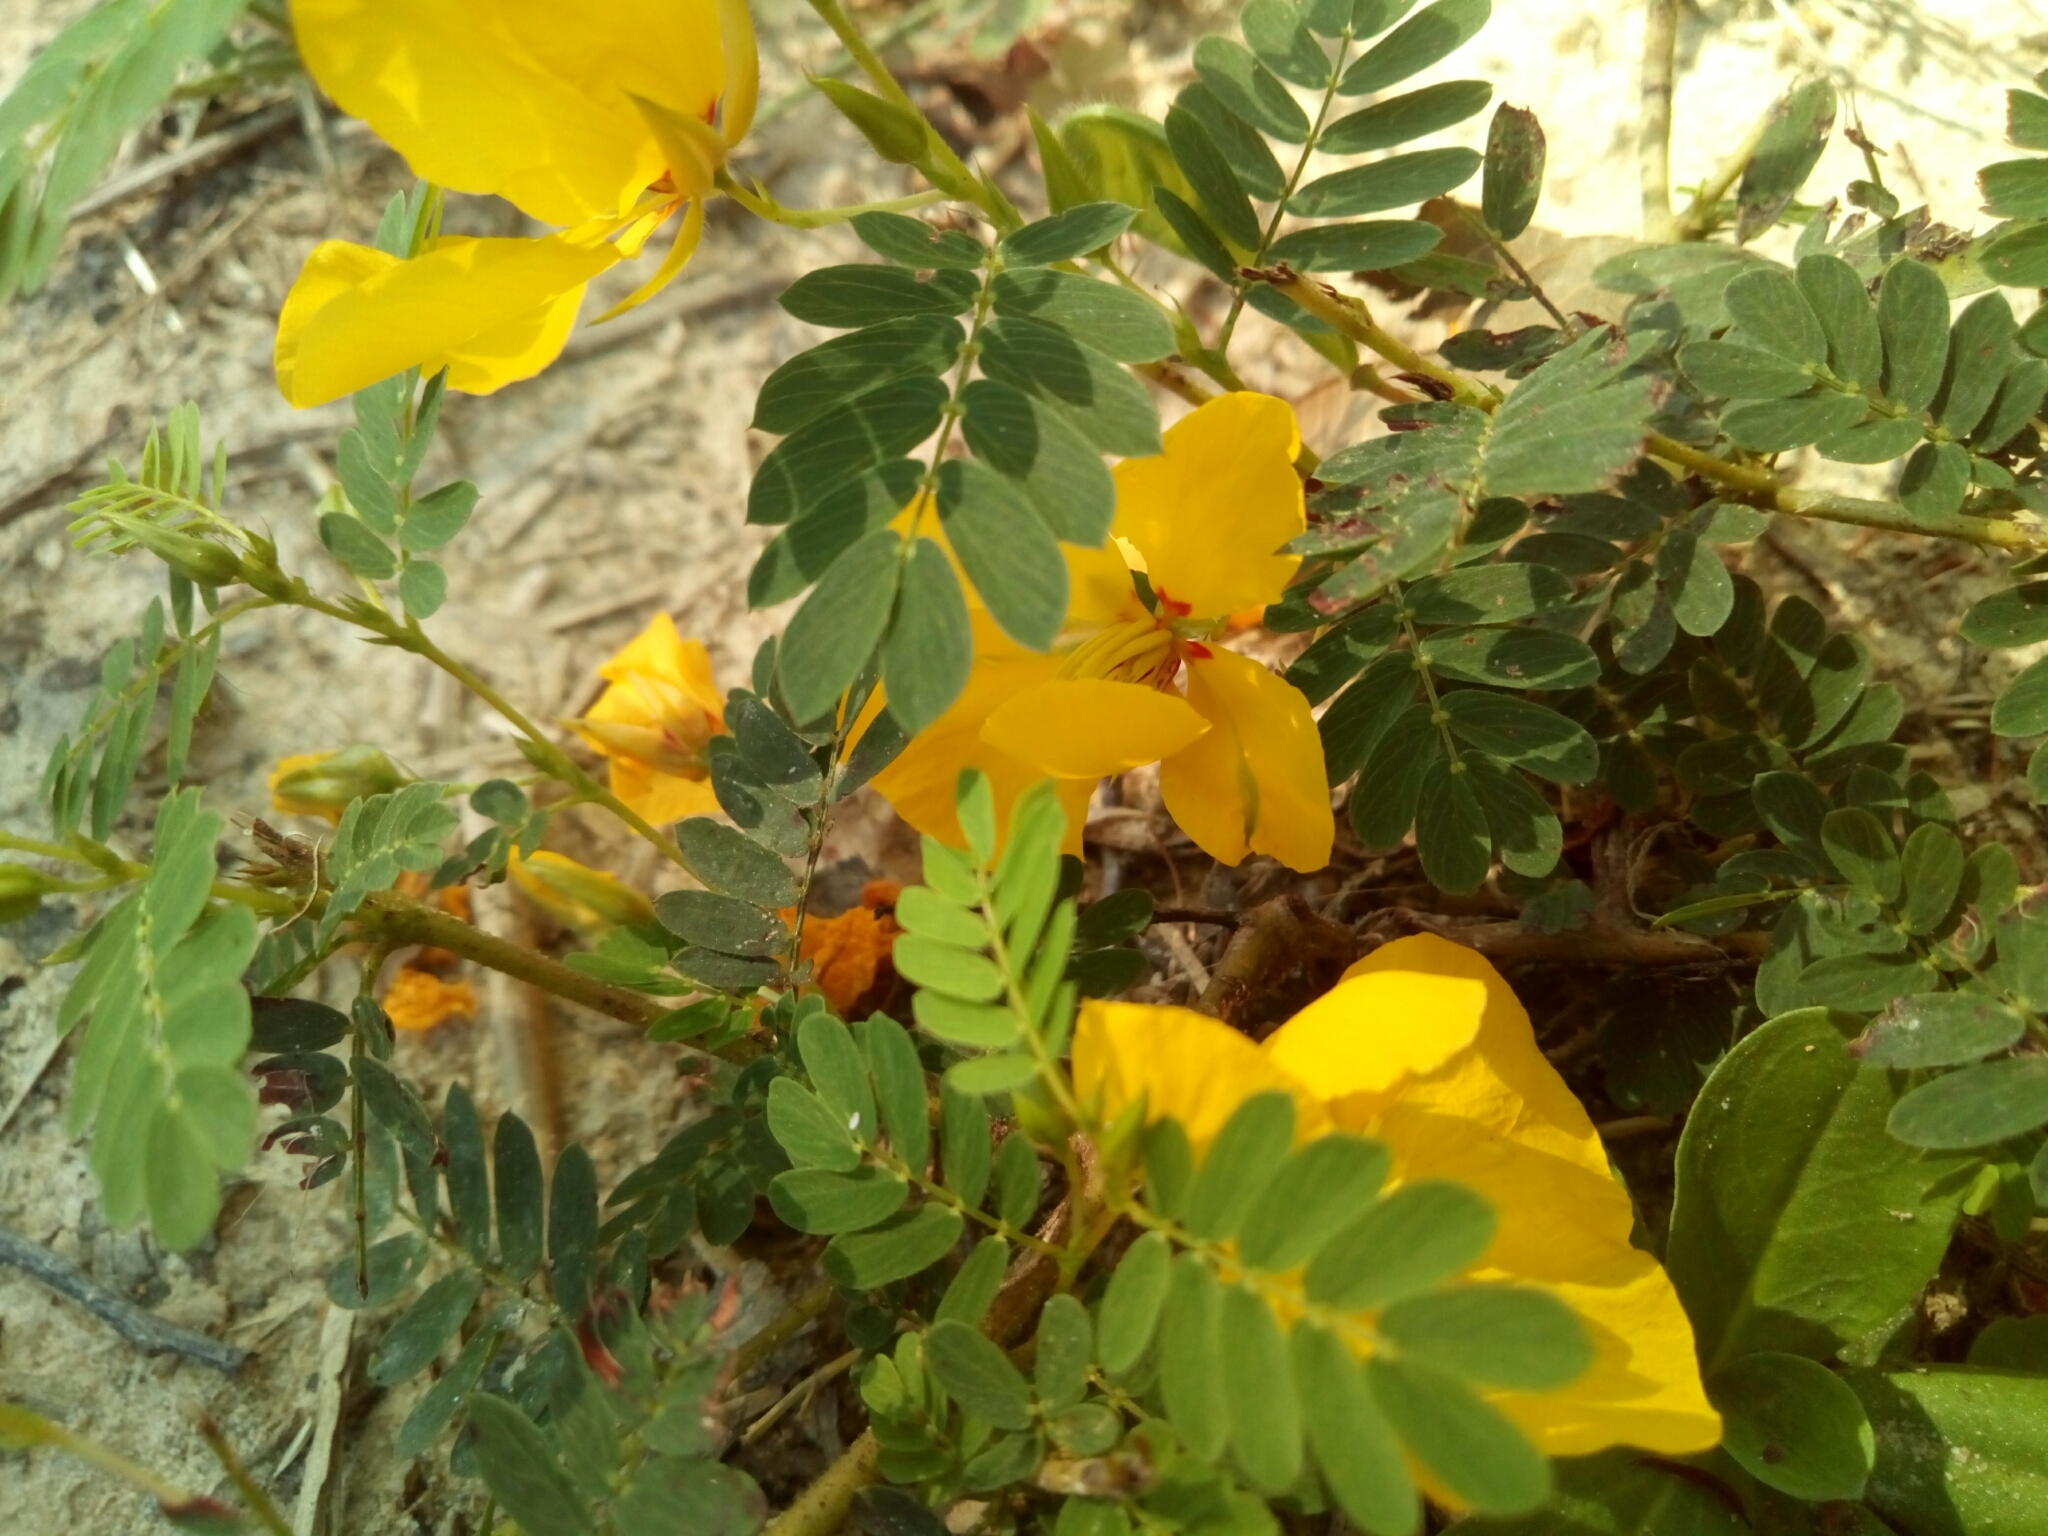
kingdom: Plantae
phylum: Tracheophyta
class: Magnoliopsida
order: Fabales
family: Fabaceae
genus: Chamaecrista
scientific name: Chamaecrista fasciculata
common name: Golden cassia
